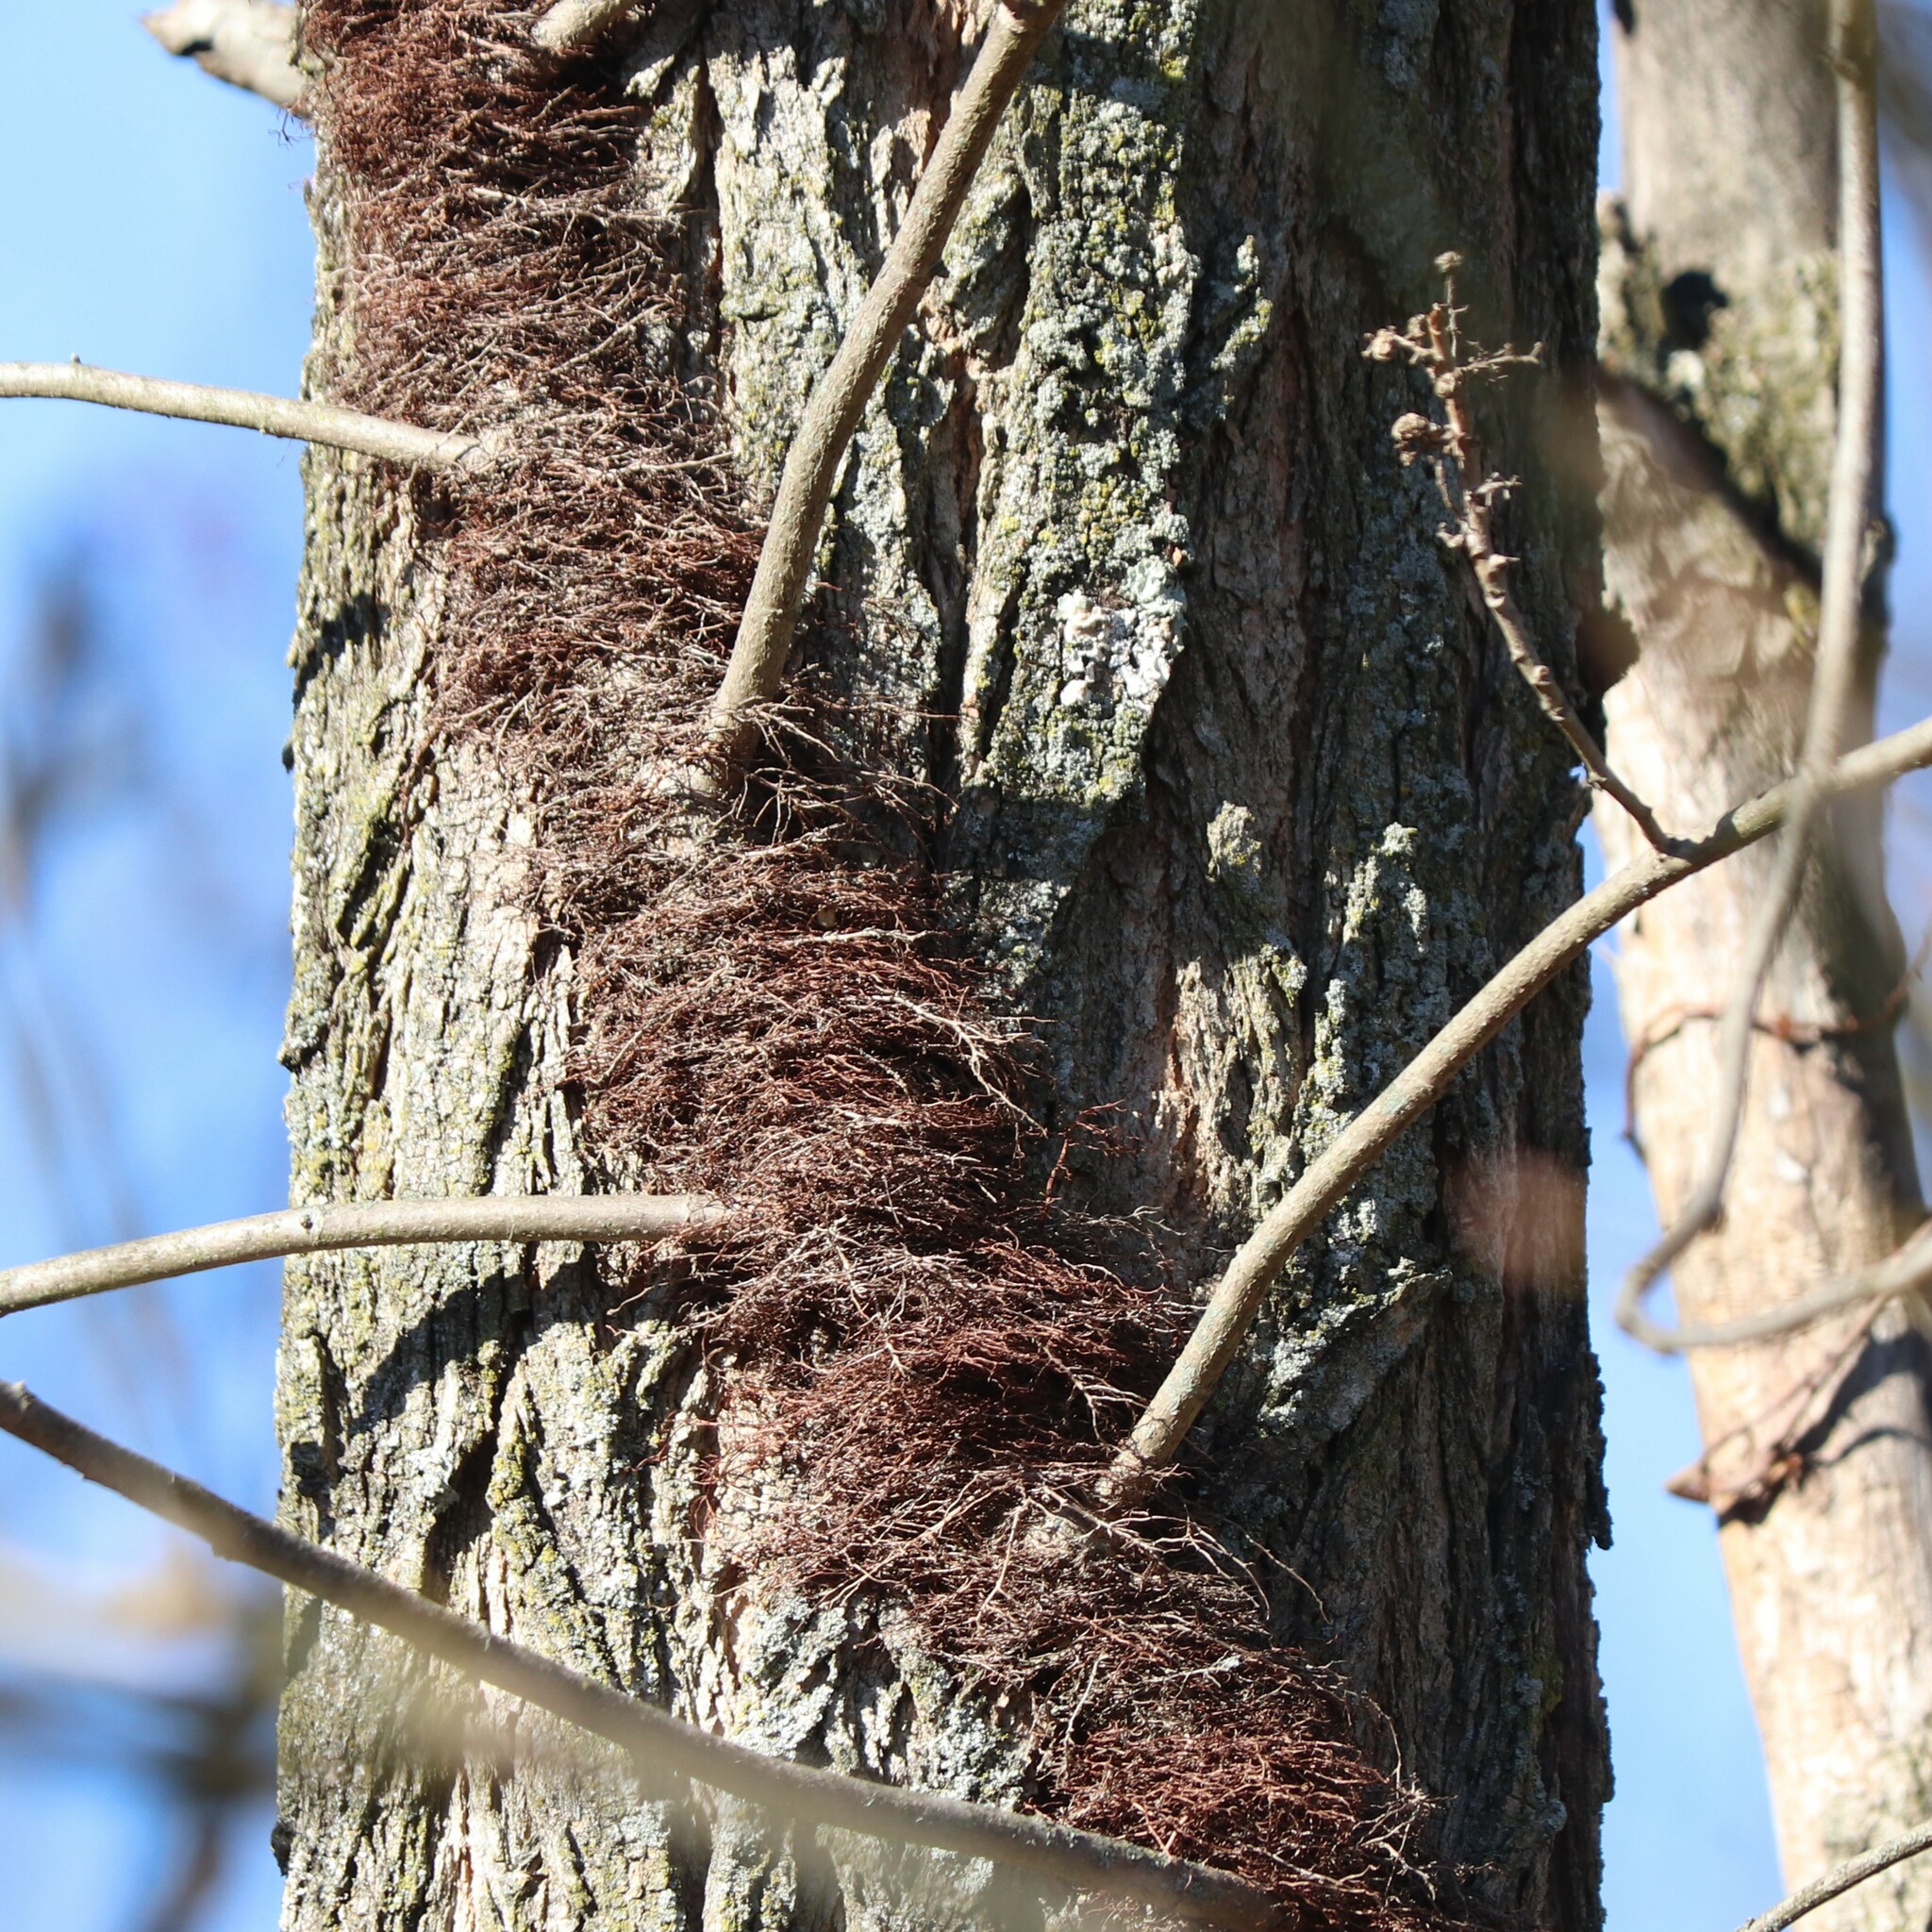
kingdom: Plantae
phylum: Tracheophyta
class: Magnoliopsida
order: Sapindales
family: Anacardiaceae
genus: Toxicodendron
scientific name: Toxicodendron radicans
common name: Poison ivy
